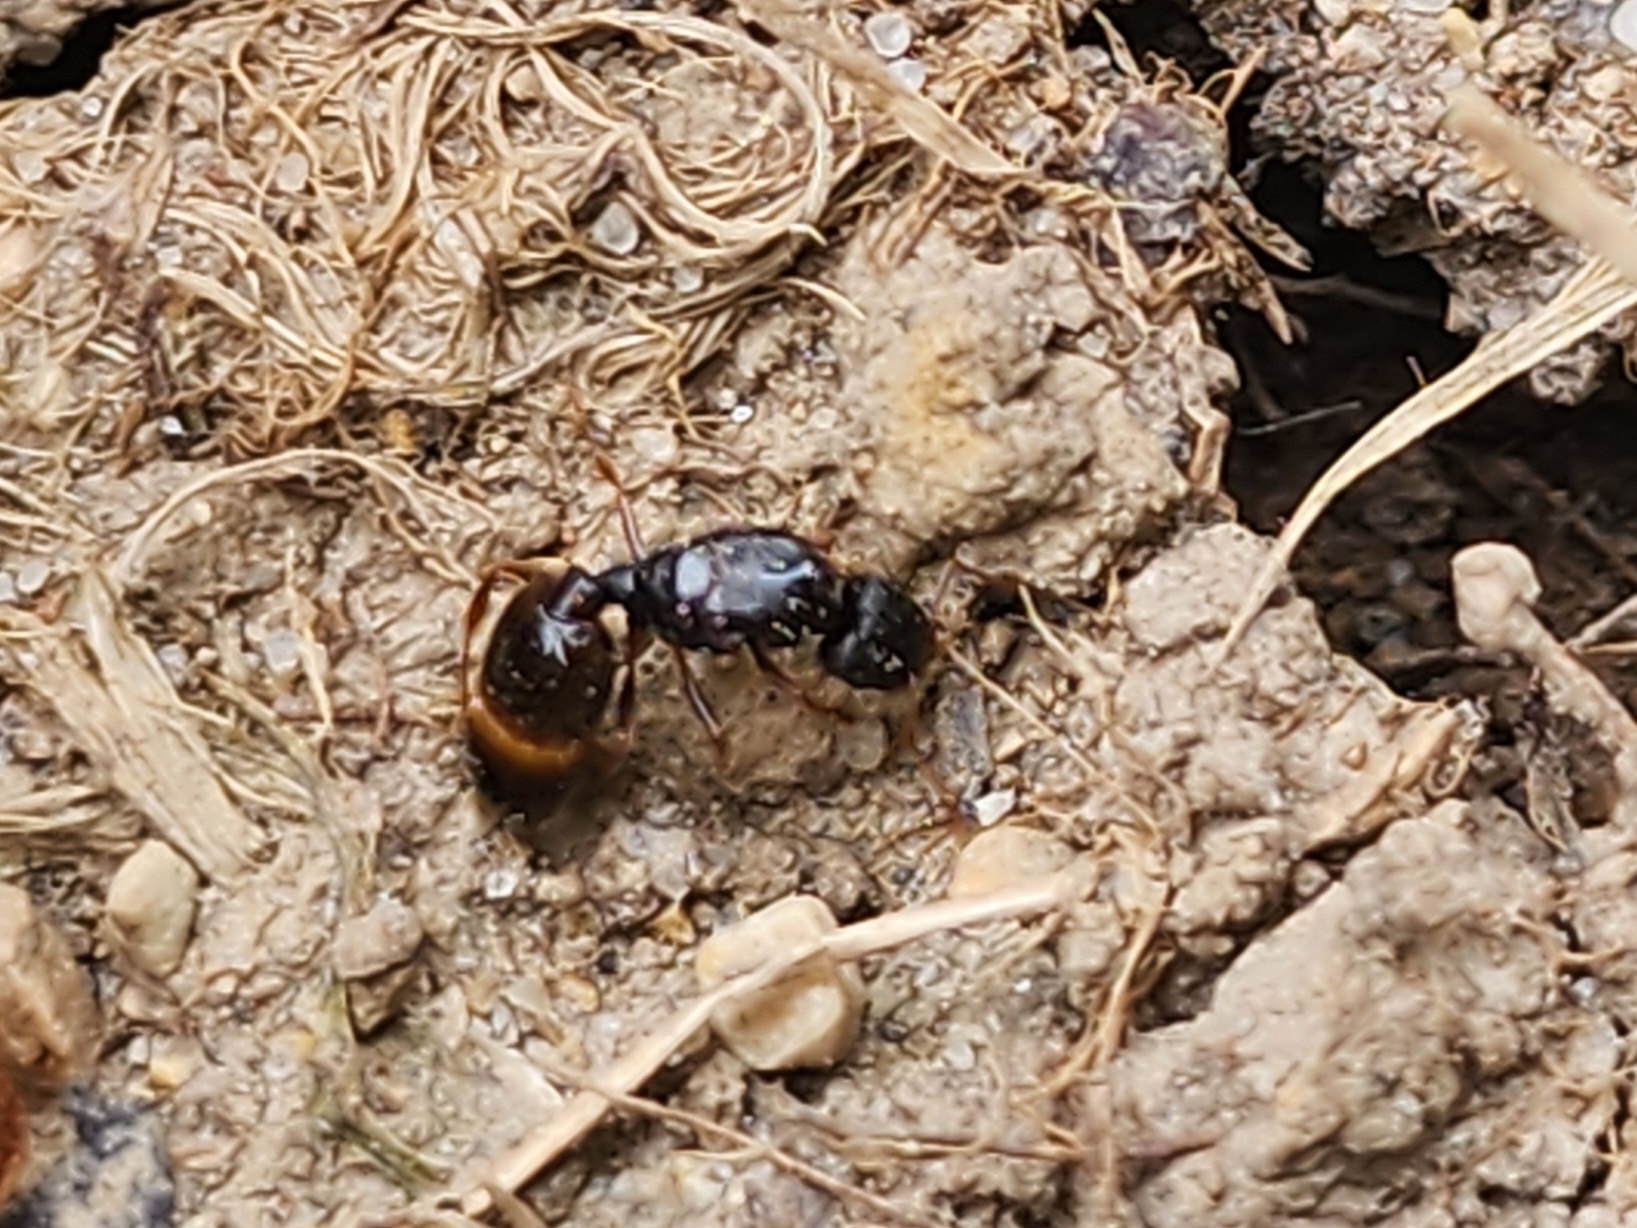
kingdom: Animalia
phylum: Arthropoda
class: Insecta
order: Hymenoptera
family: Formicidae
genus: Tetramorium
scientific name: Tetramorium immigrans
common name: Pavement ant
